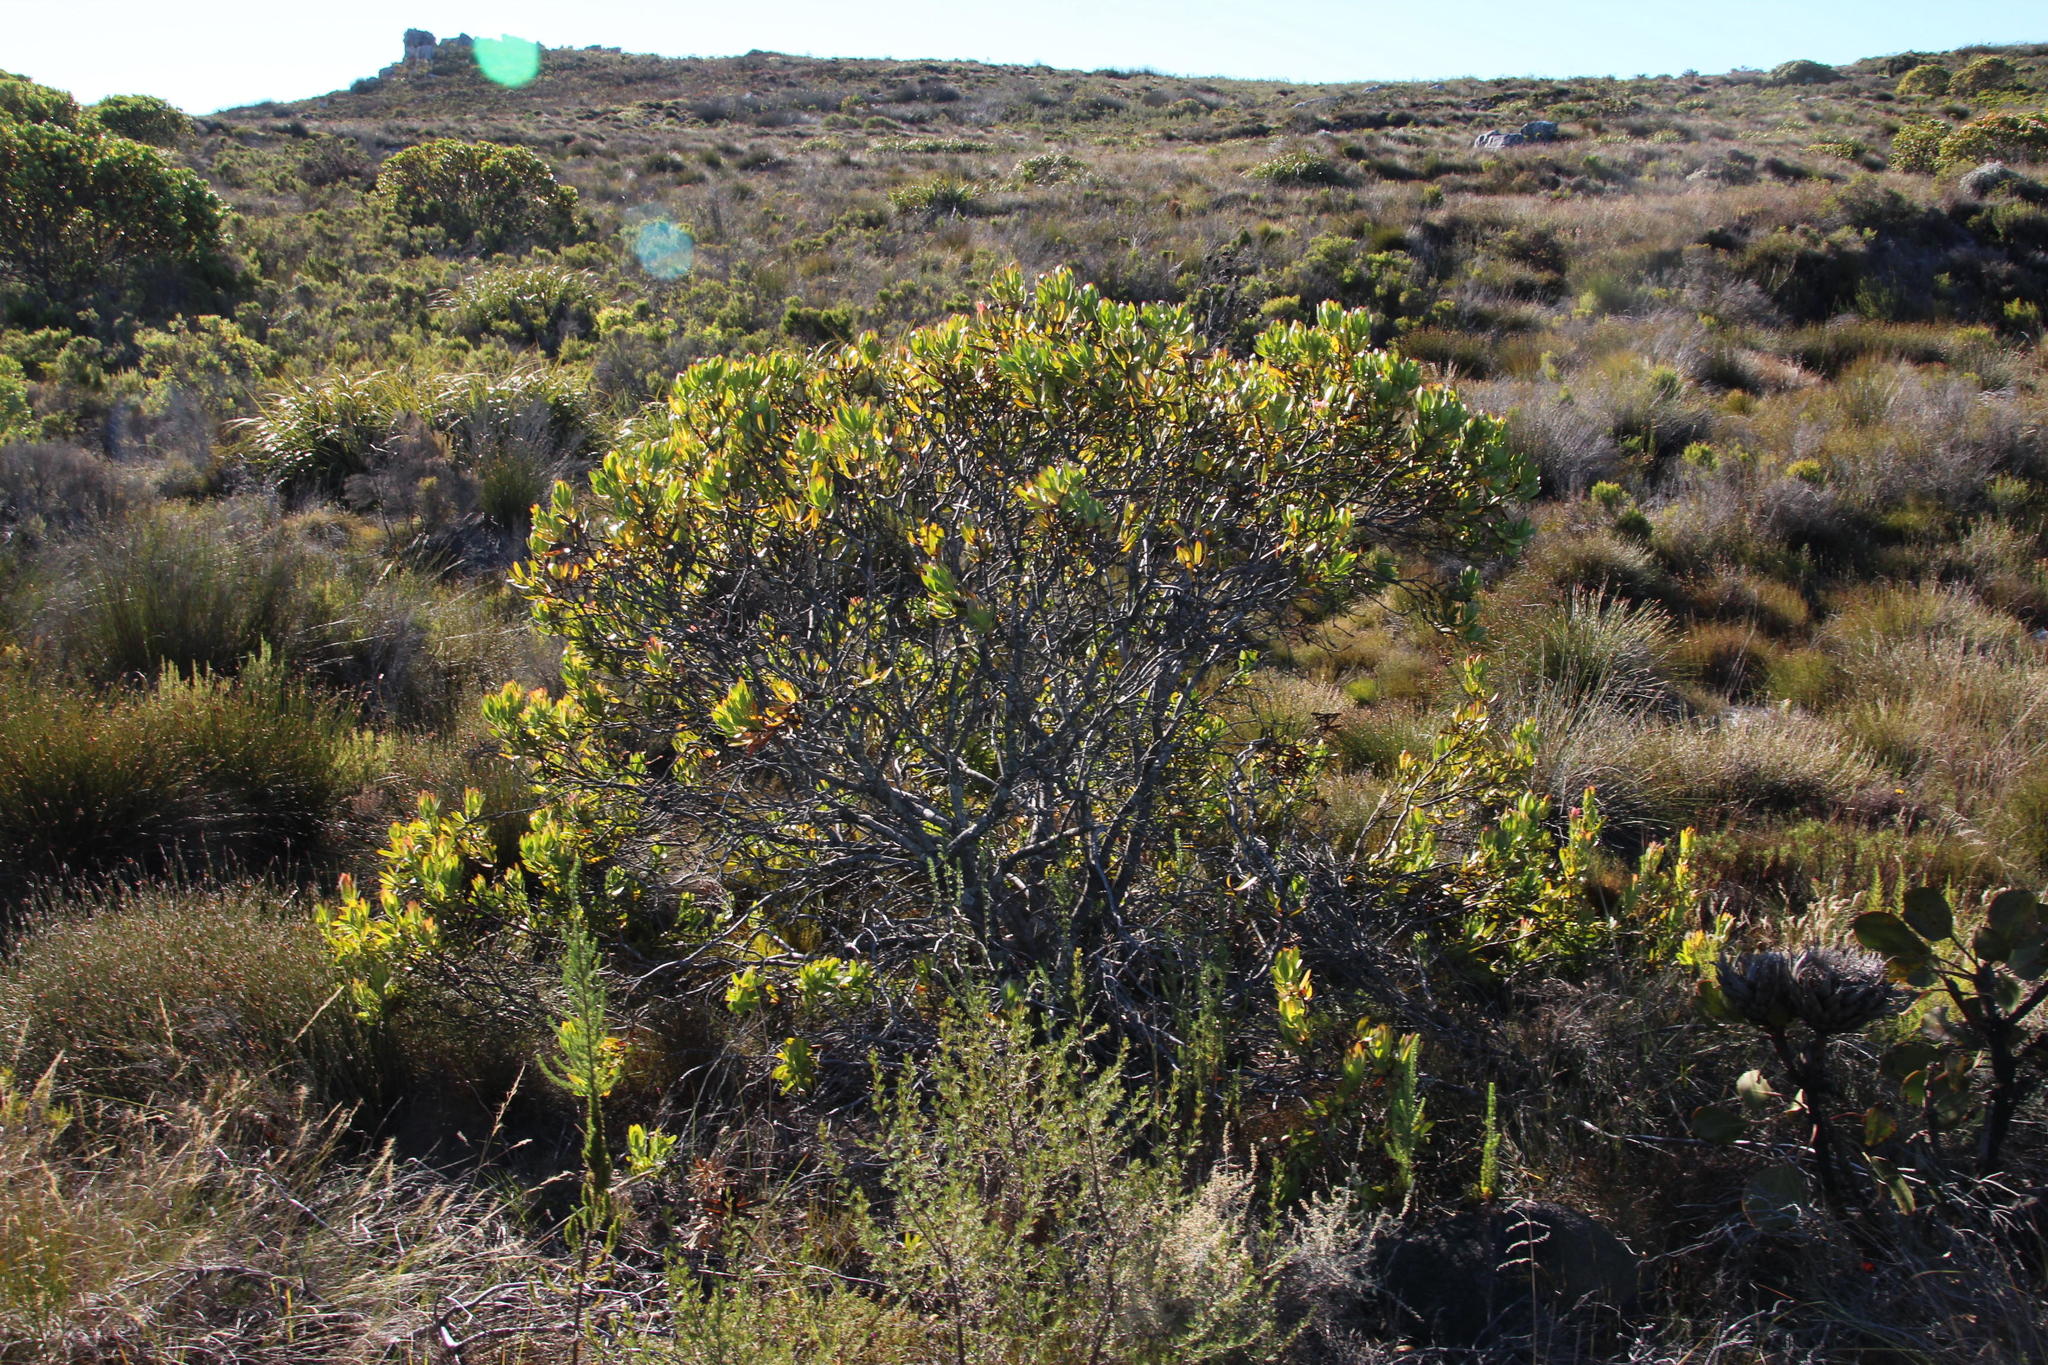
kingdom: Plantae
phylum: Tracheophyta
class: Magnoliopsida
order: Proteales
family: Proteaceae
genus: Leucadendron
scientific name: Leucadendron gandogeri
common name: Broad-leaf conebush
